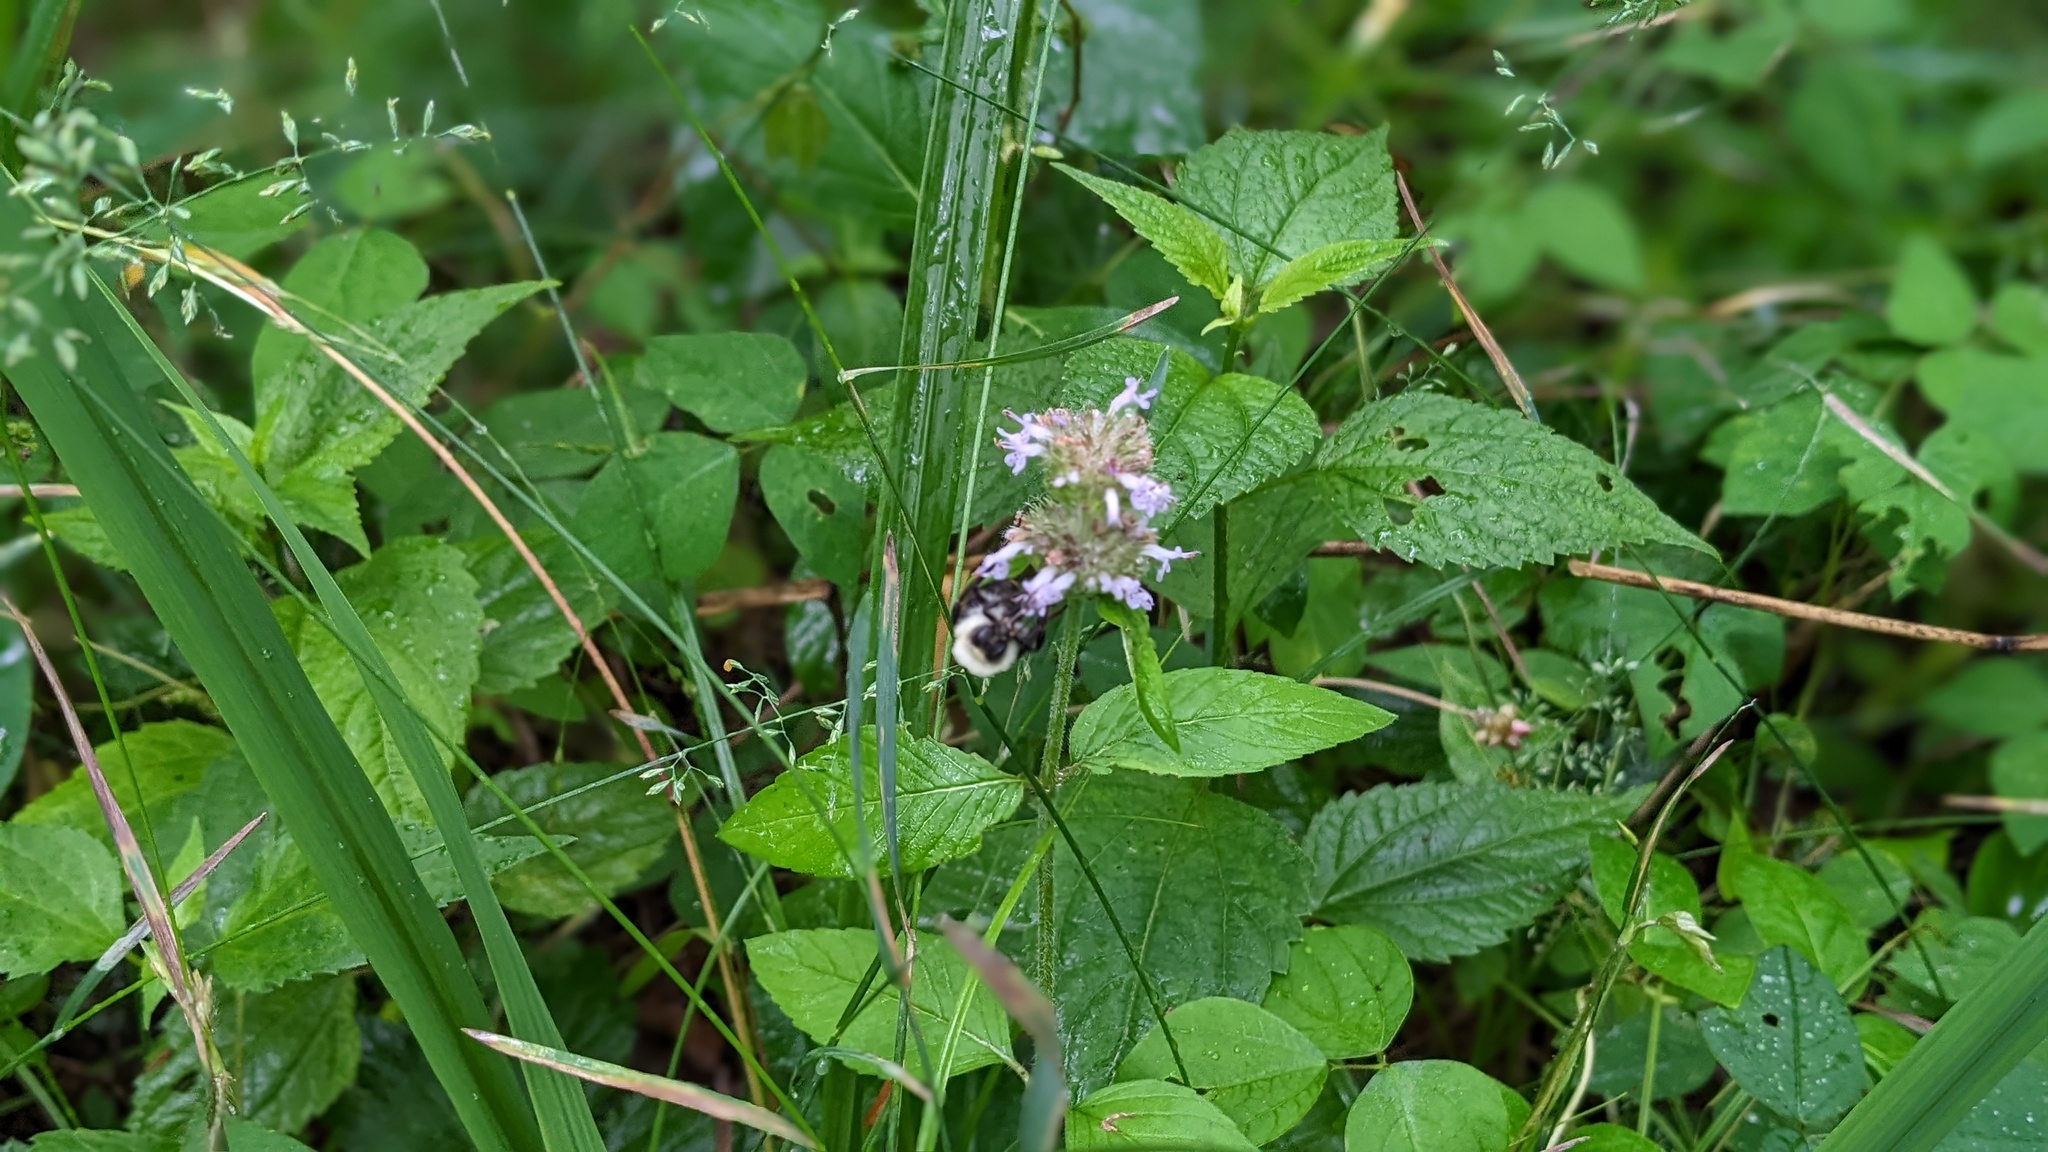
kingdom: Plantae
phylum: Tracheophyta
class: Magnoliopsida
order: Lamiales
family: Lamiaceae
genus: Blephilia
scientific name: Blephilia ciliata
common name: Downy blephilia
